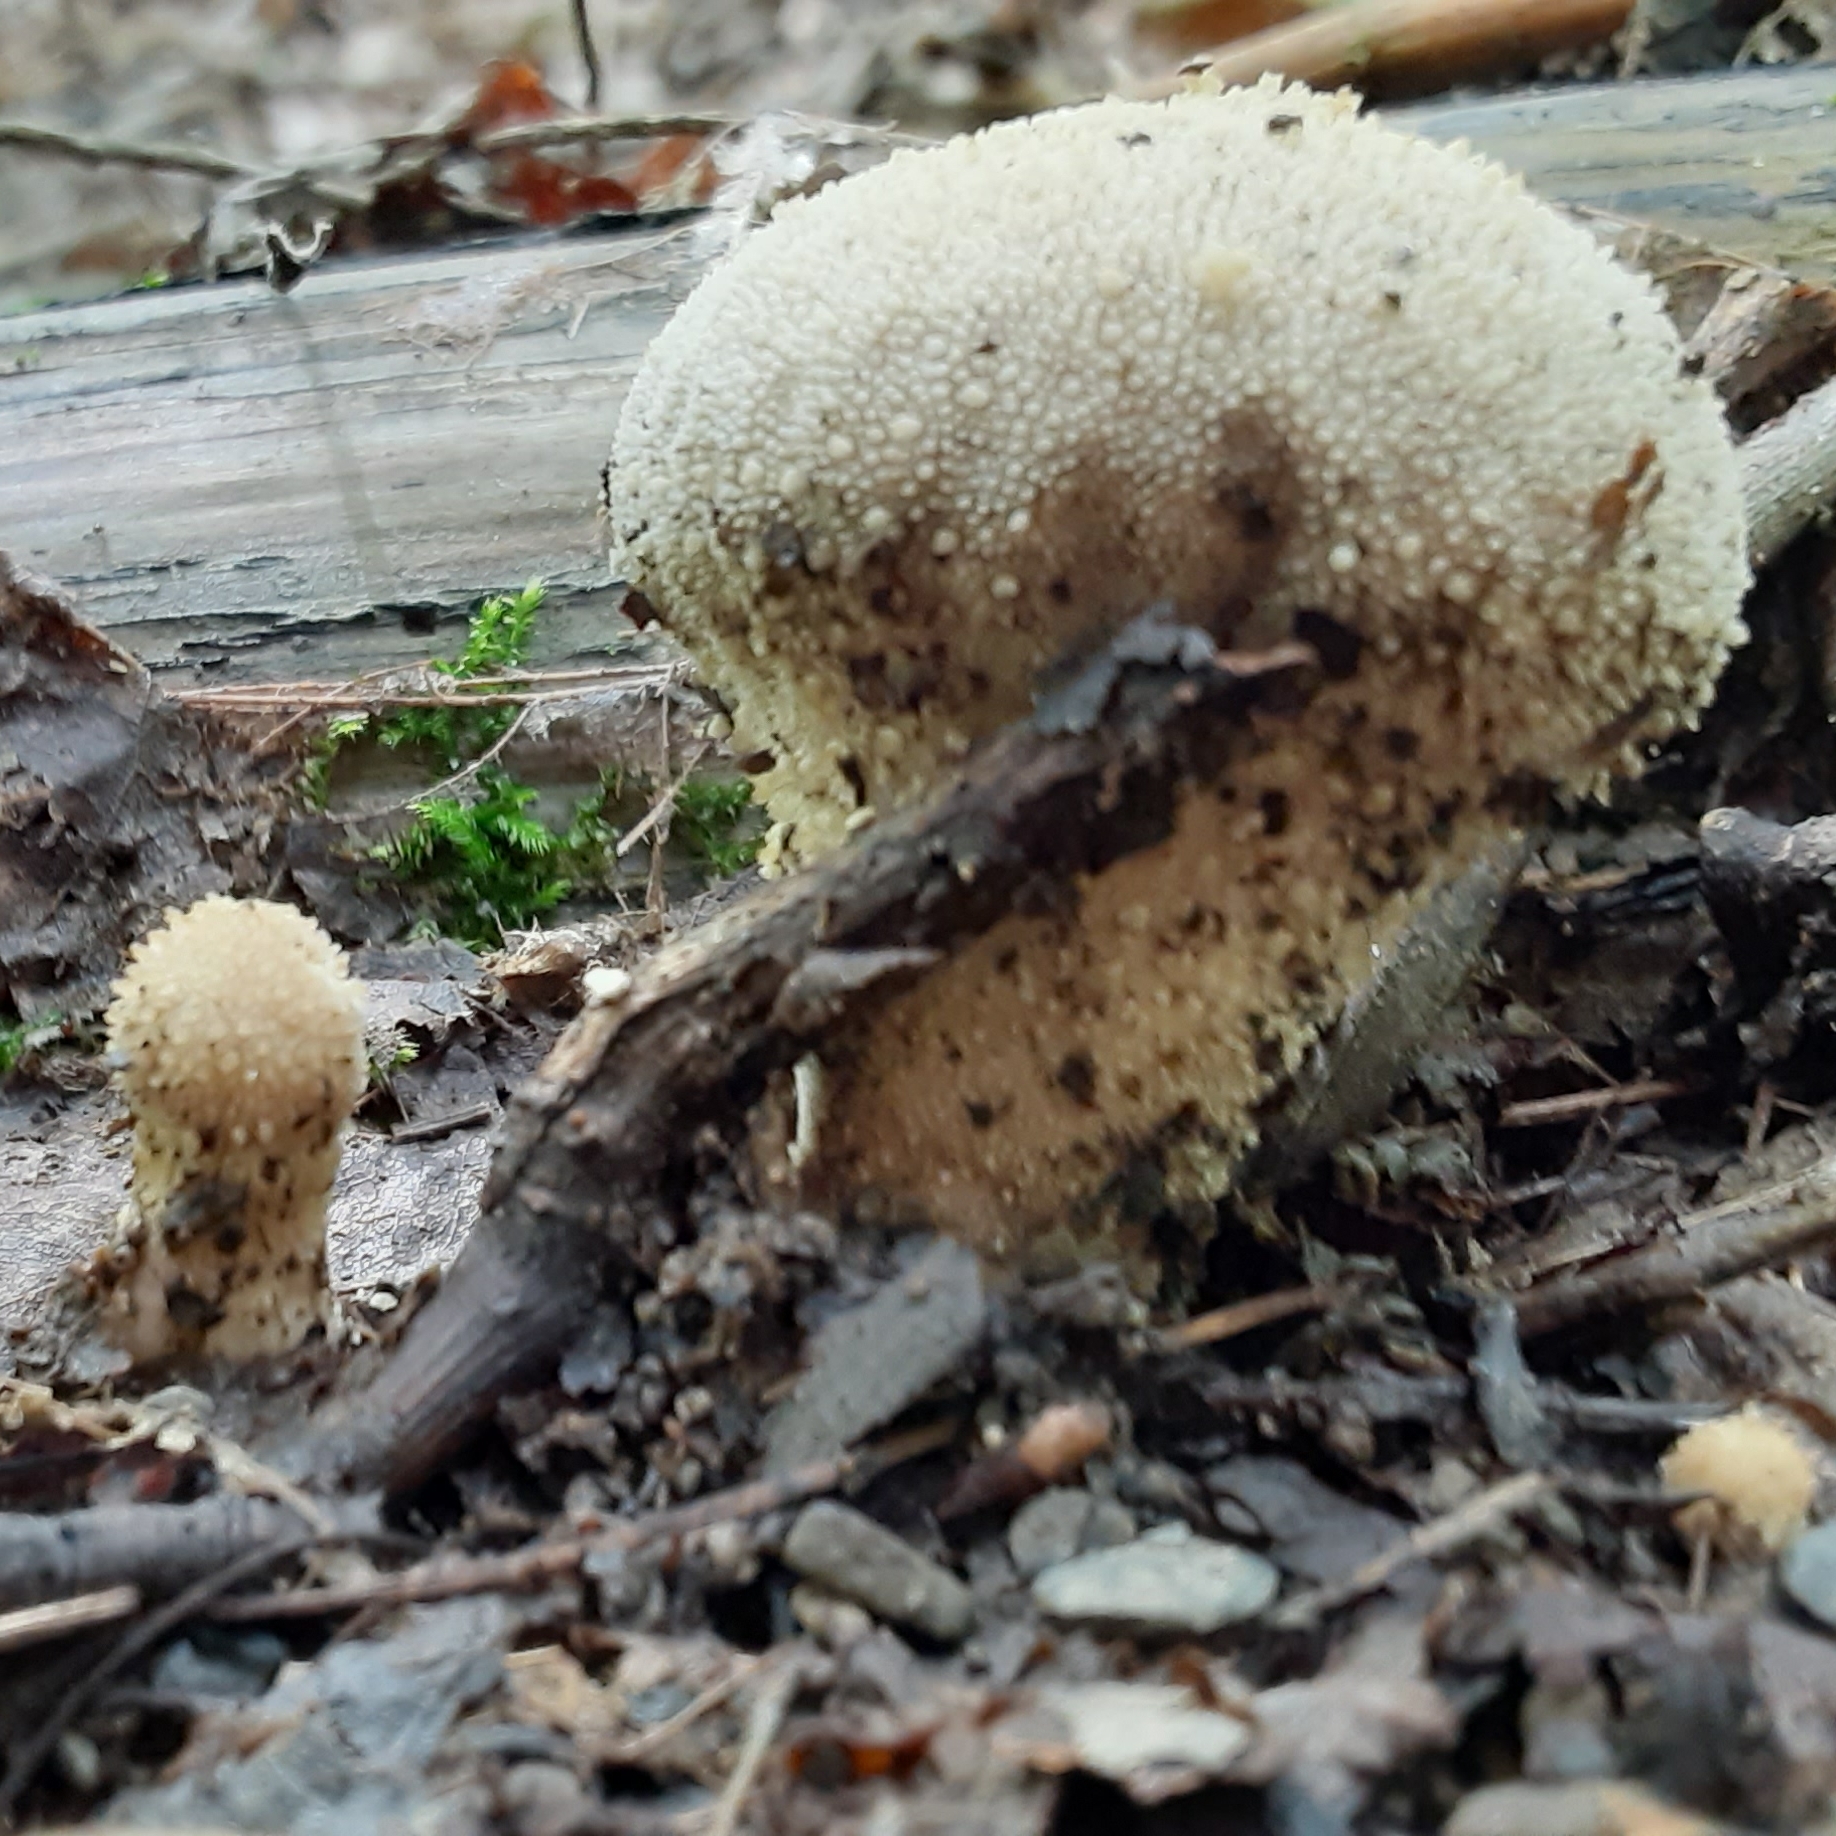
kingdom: Fungi
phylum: Basidiomycota
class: Agaricomycetes
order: Agaricales
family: Lycoperdaceae
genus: Lycoperdon
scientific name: Lycoperdon perlatum
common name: Common puffball
